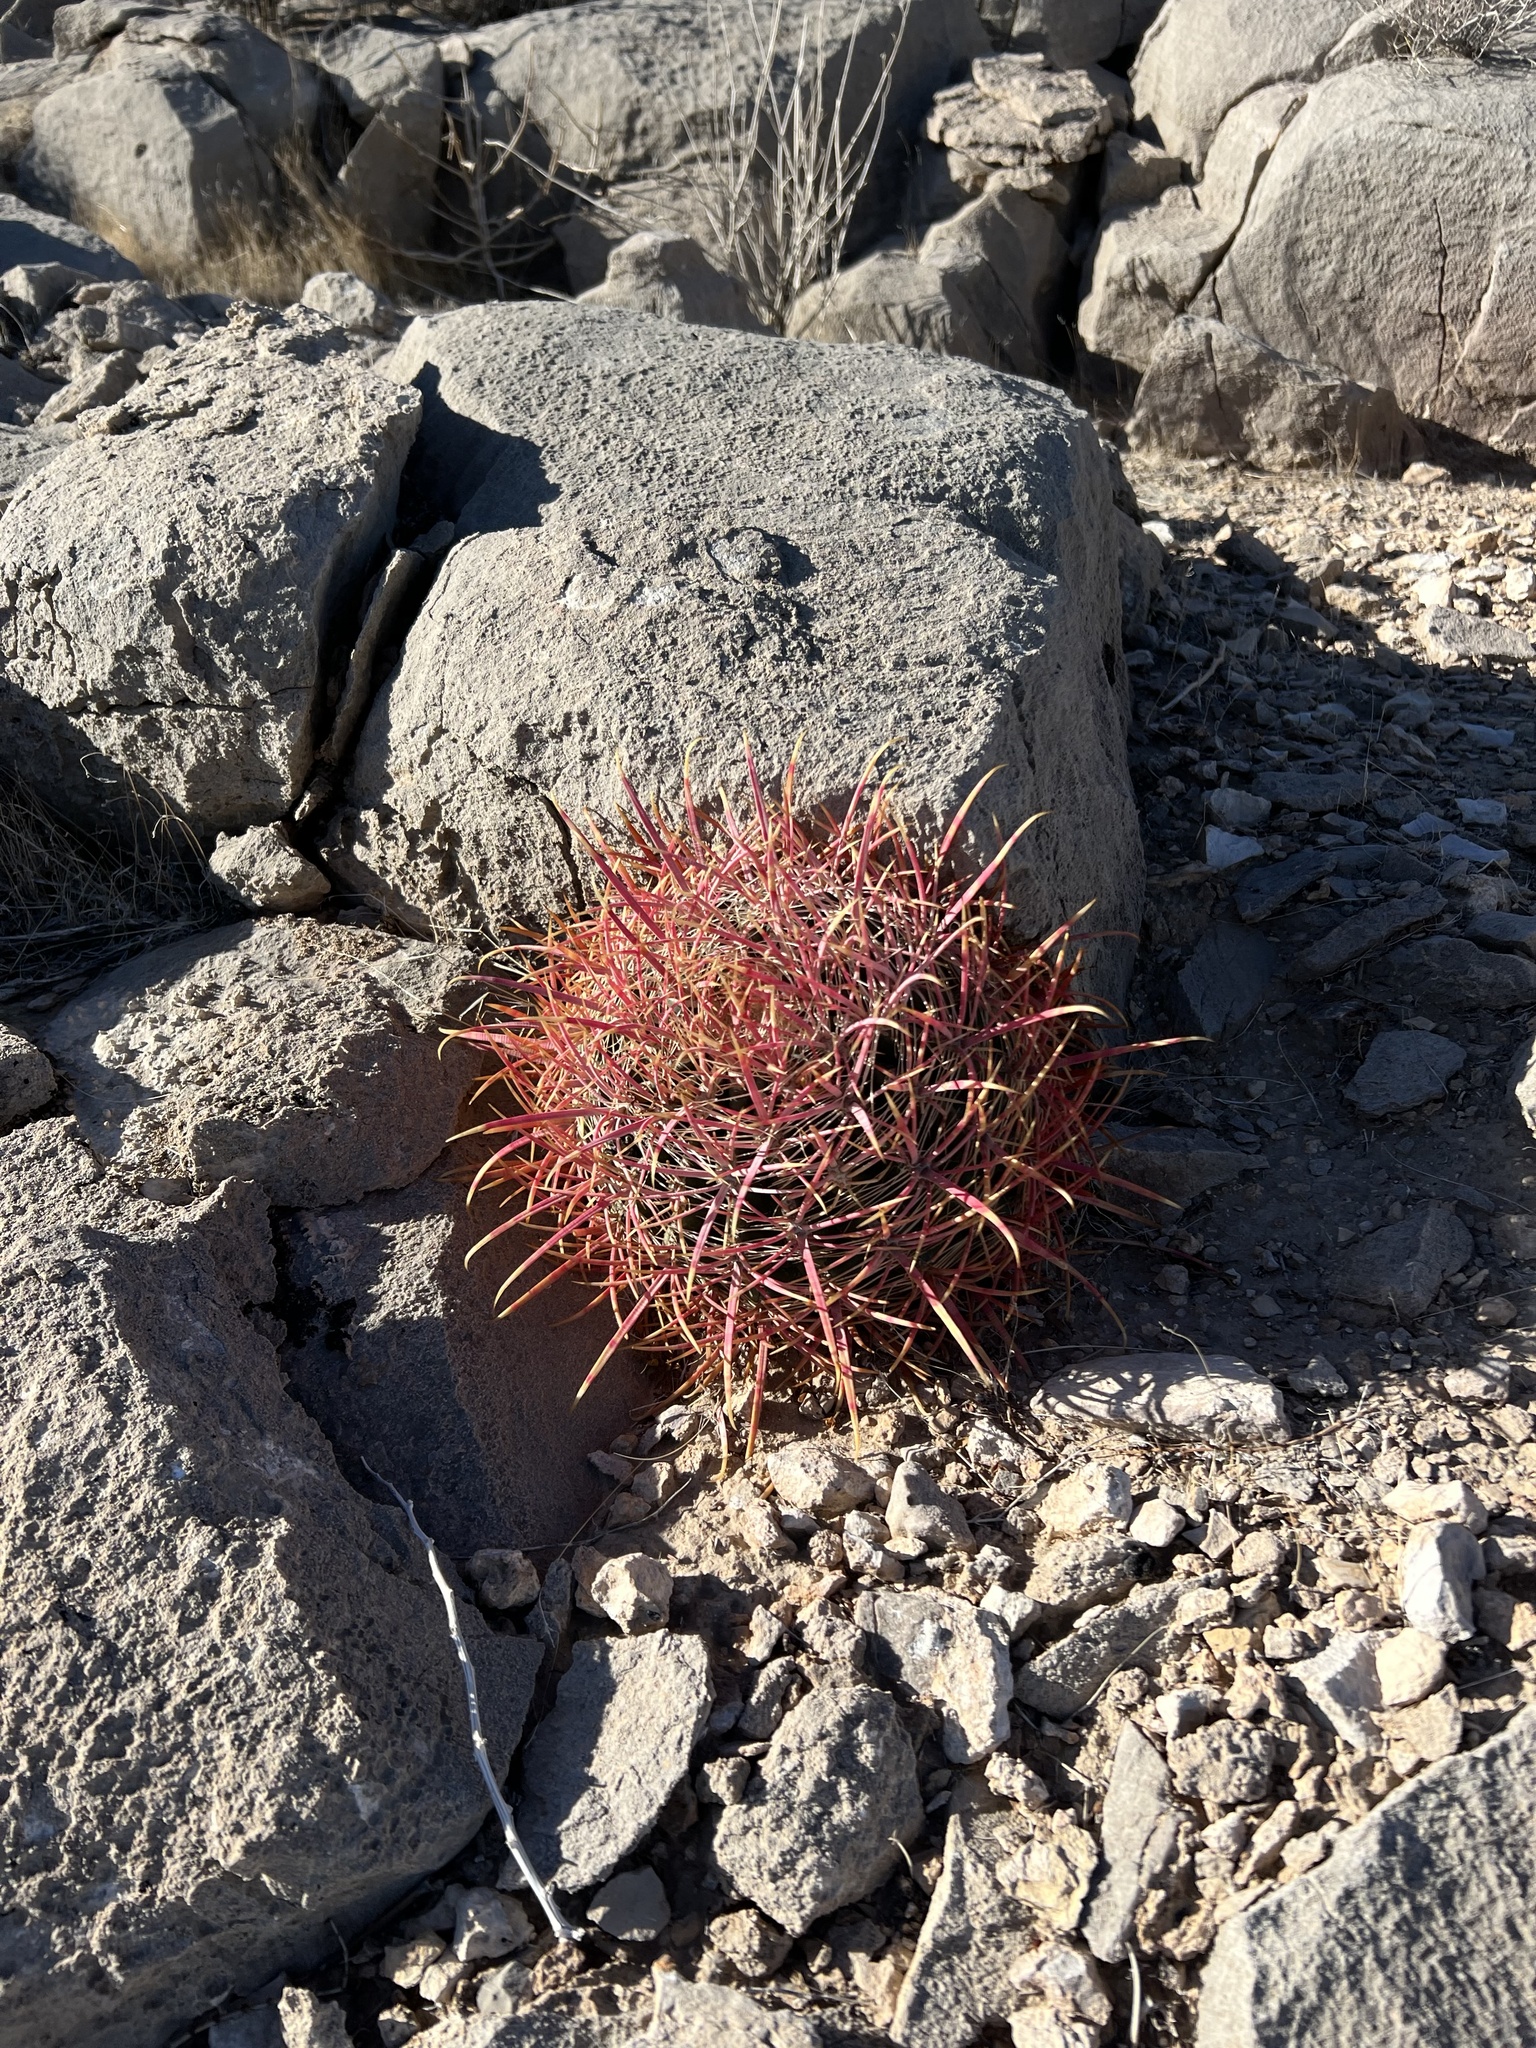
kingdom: Plantae
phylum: Tracheophyta
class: Magnoliopsida
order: Caryophyllales
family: Cactaceae
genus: Ferocactus
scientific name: Ferocactus cylindraceus
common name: California barrel cactus
